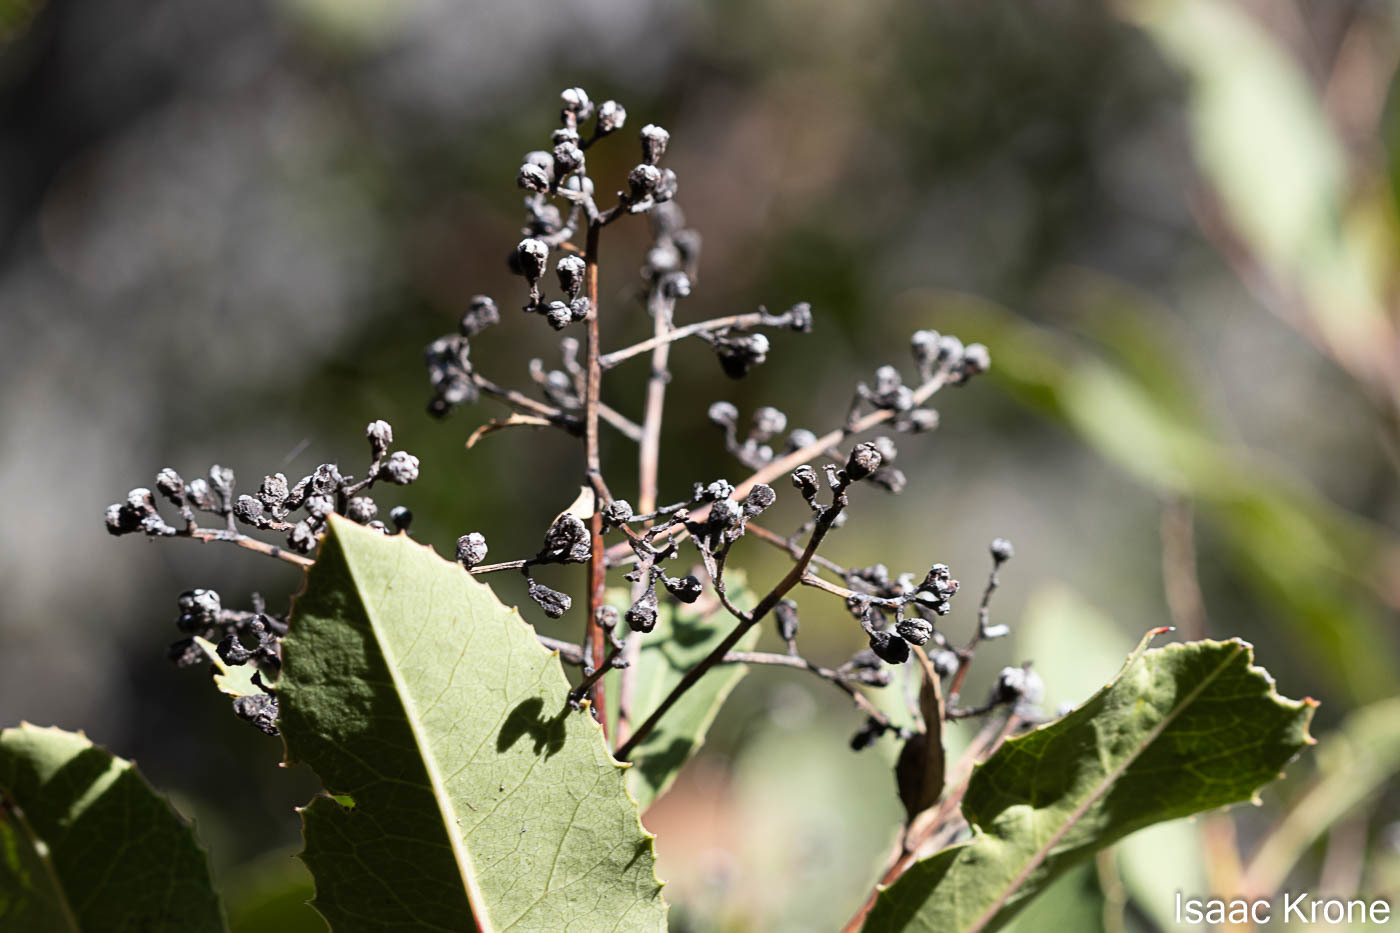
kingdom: Plantae
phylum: Tracheophyta
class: Magnoliopsida
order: Rosales
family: Rosaceae
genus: Heteromeles
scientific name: Heteromeles arbutifolia
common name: California-holly
